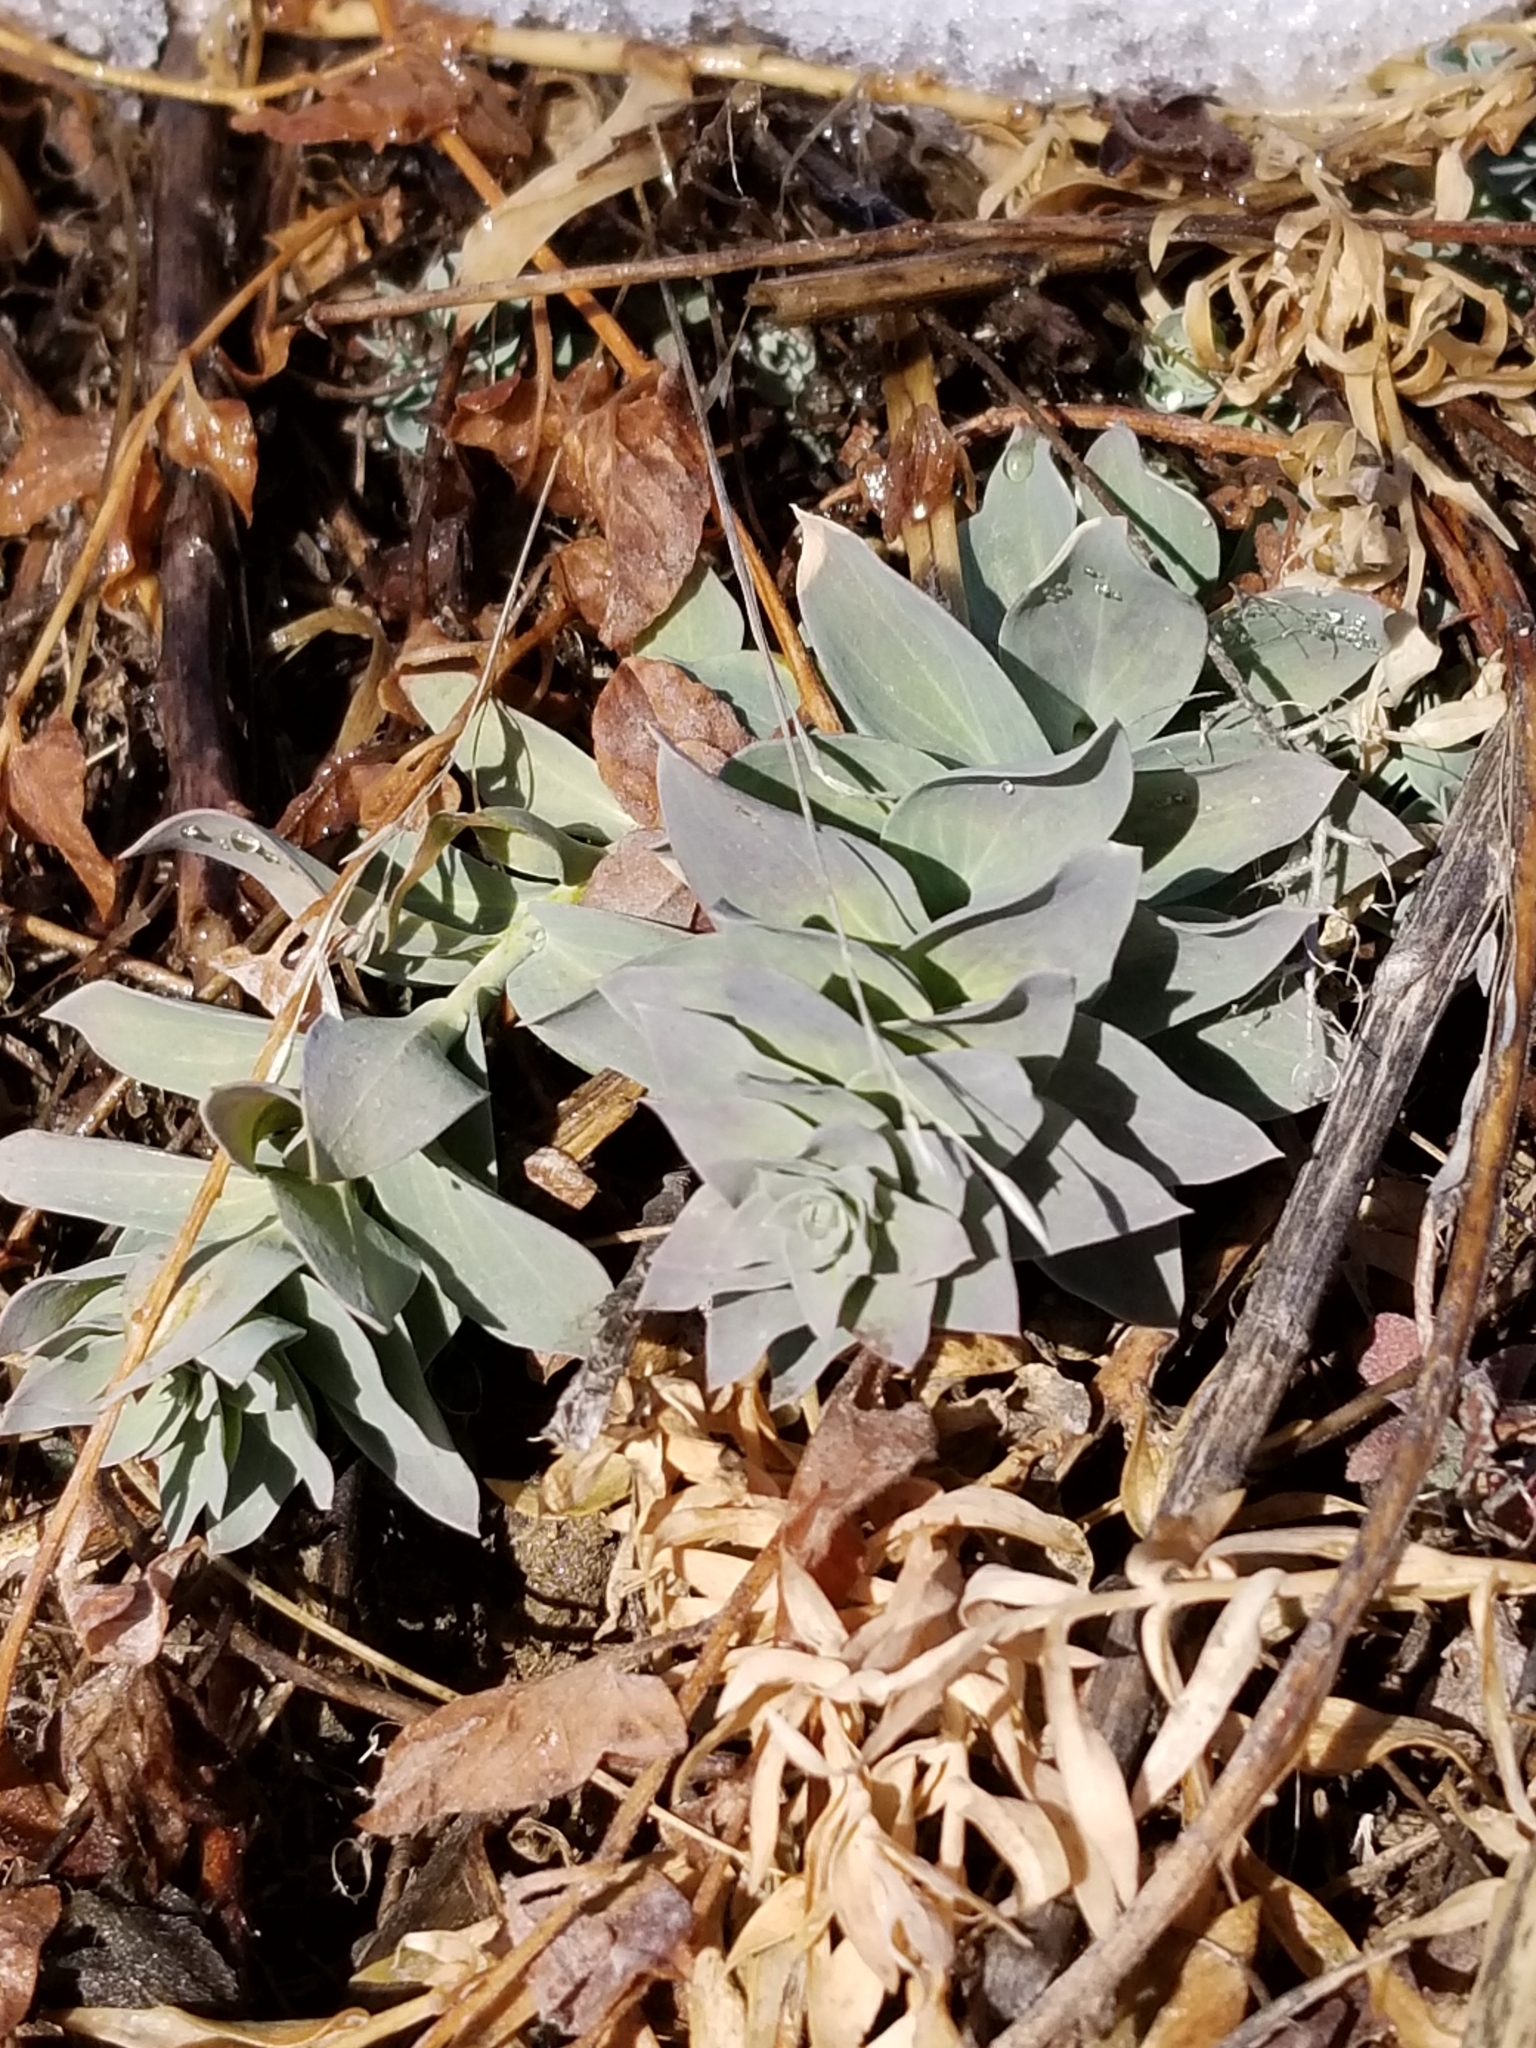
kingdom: Plantae
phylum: Tracheophyta
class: Magnoliopsida
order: Malpighiales
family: Euphorbiaceae
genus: Euphorbia
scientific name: Euphorbia myrsinites
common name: Myrtle spurge
